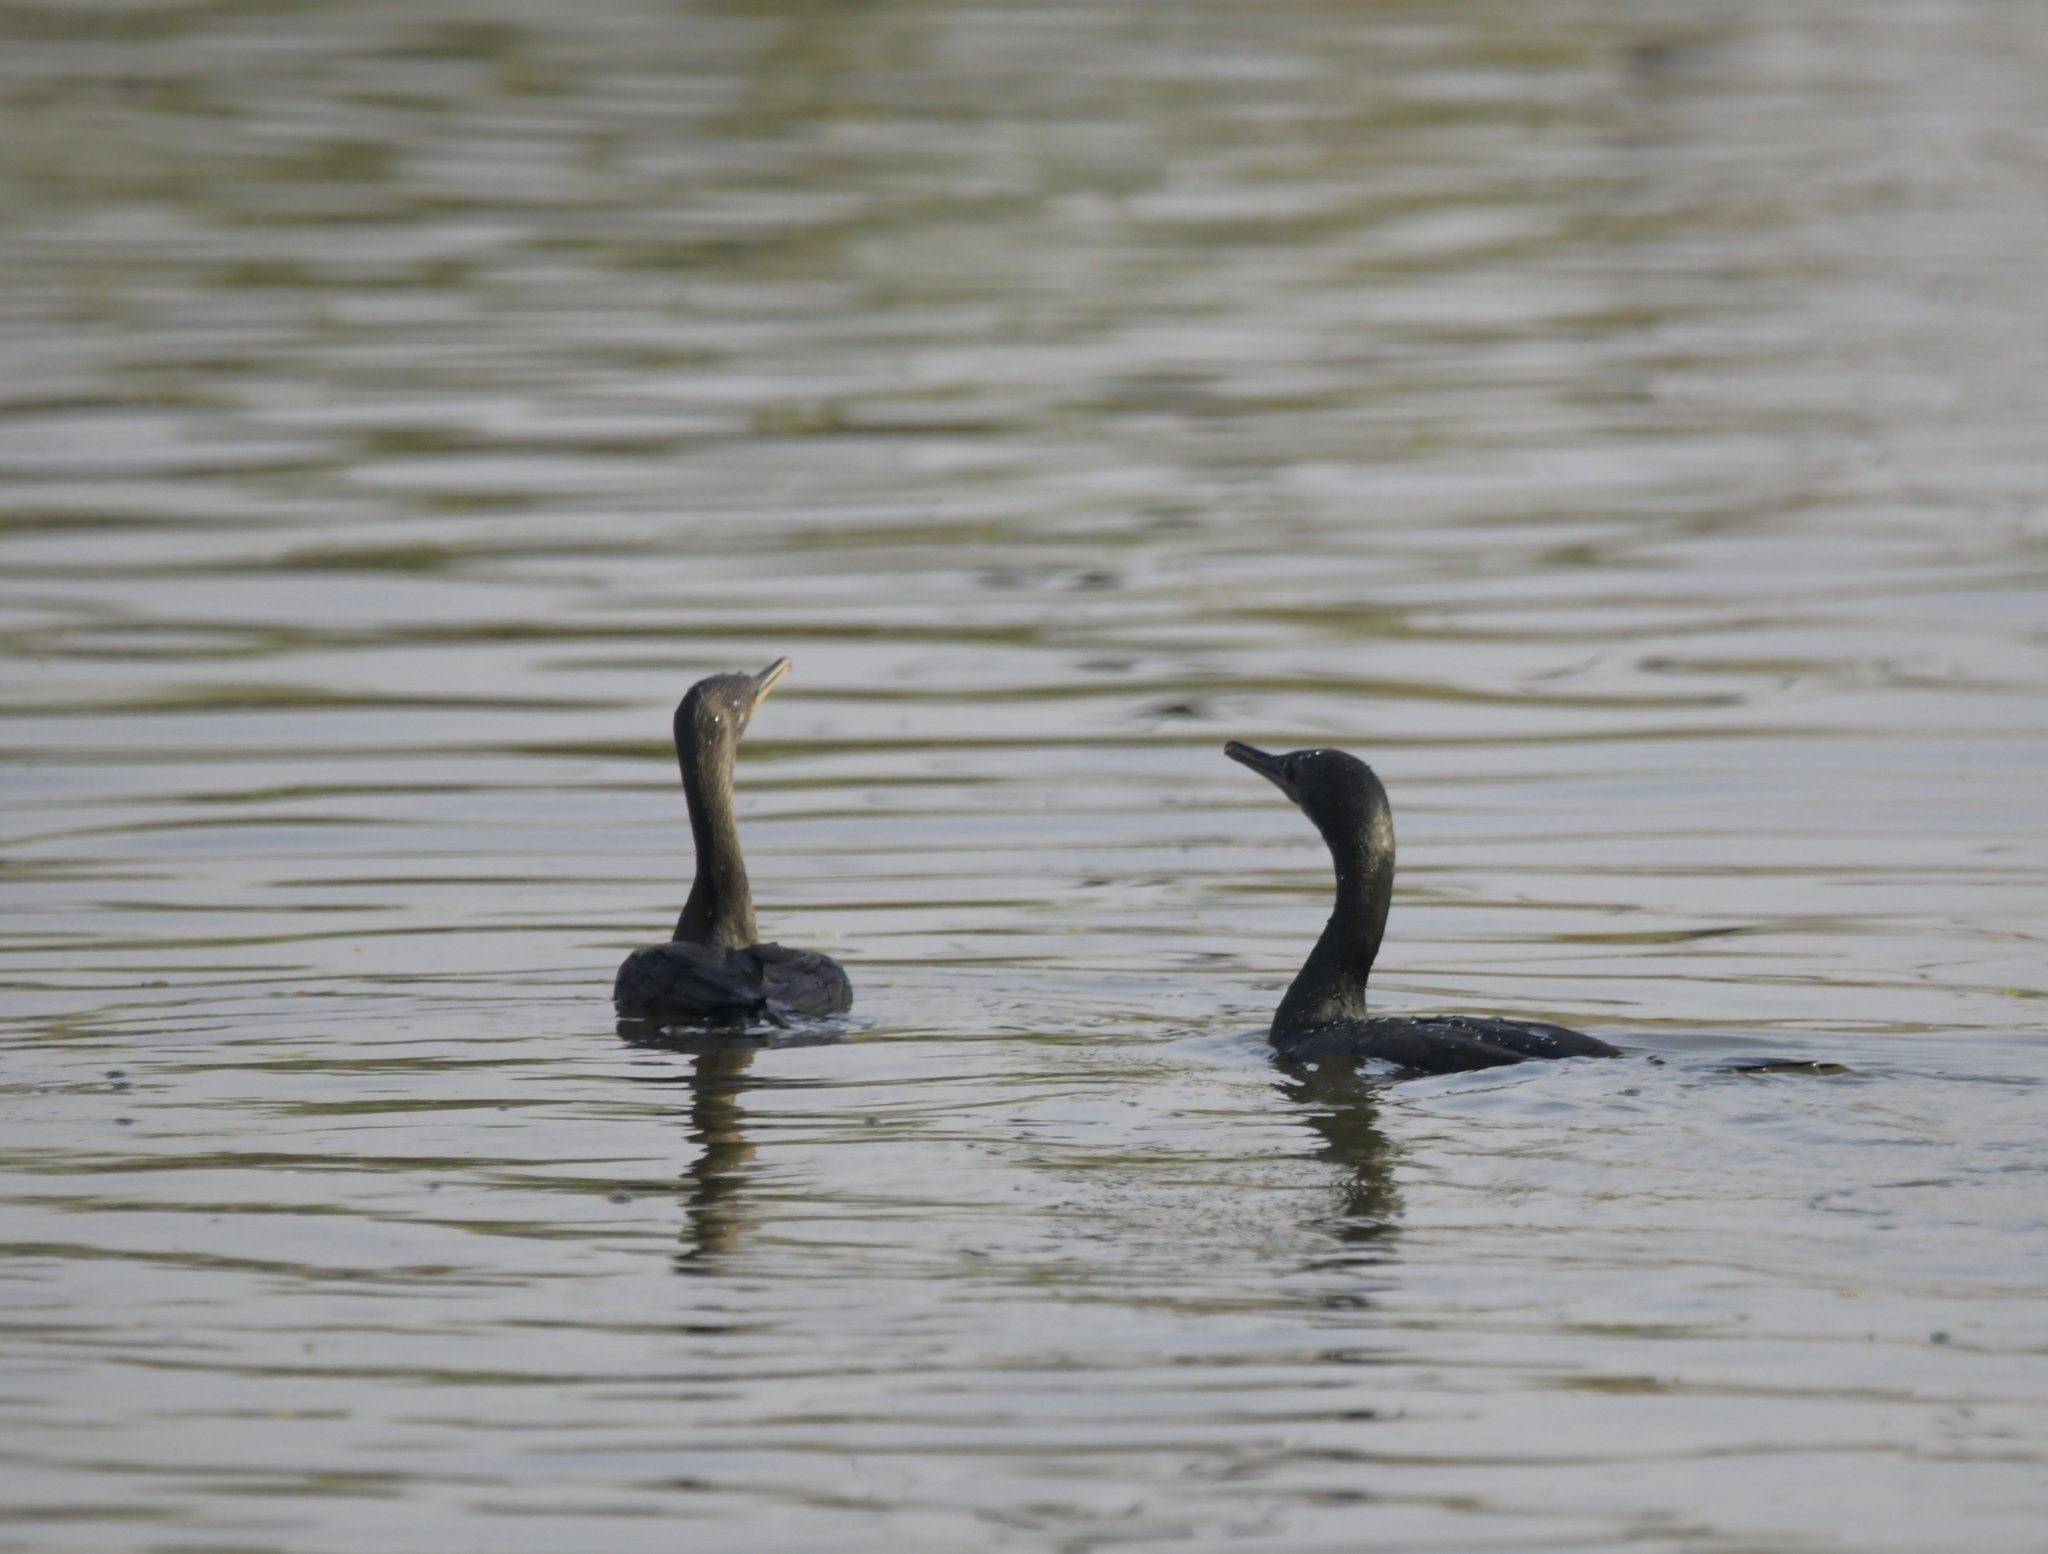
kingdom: Animalia
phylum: Chordata
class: Aves
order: Suliformes
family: Phalacrocoracidae
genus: Phalacrocorax
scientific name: Phalacrocorax fuscicollis
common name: Indian cormorant
